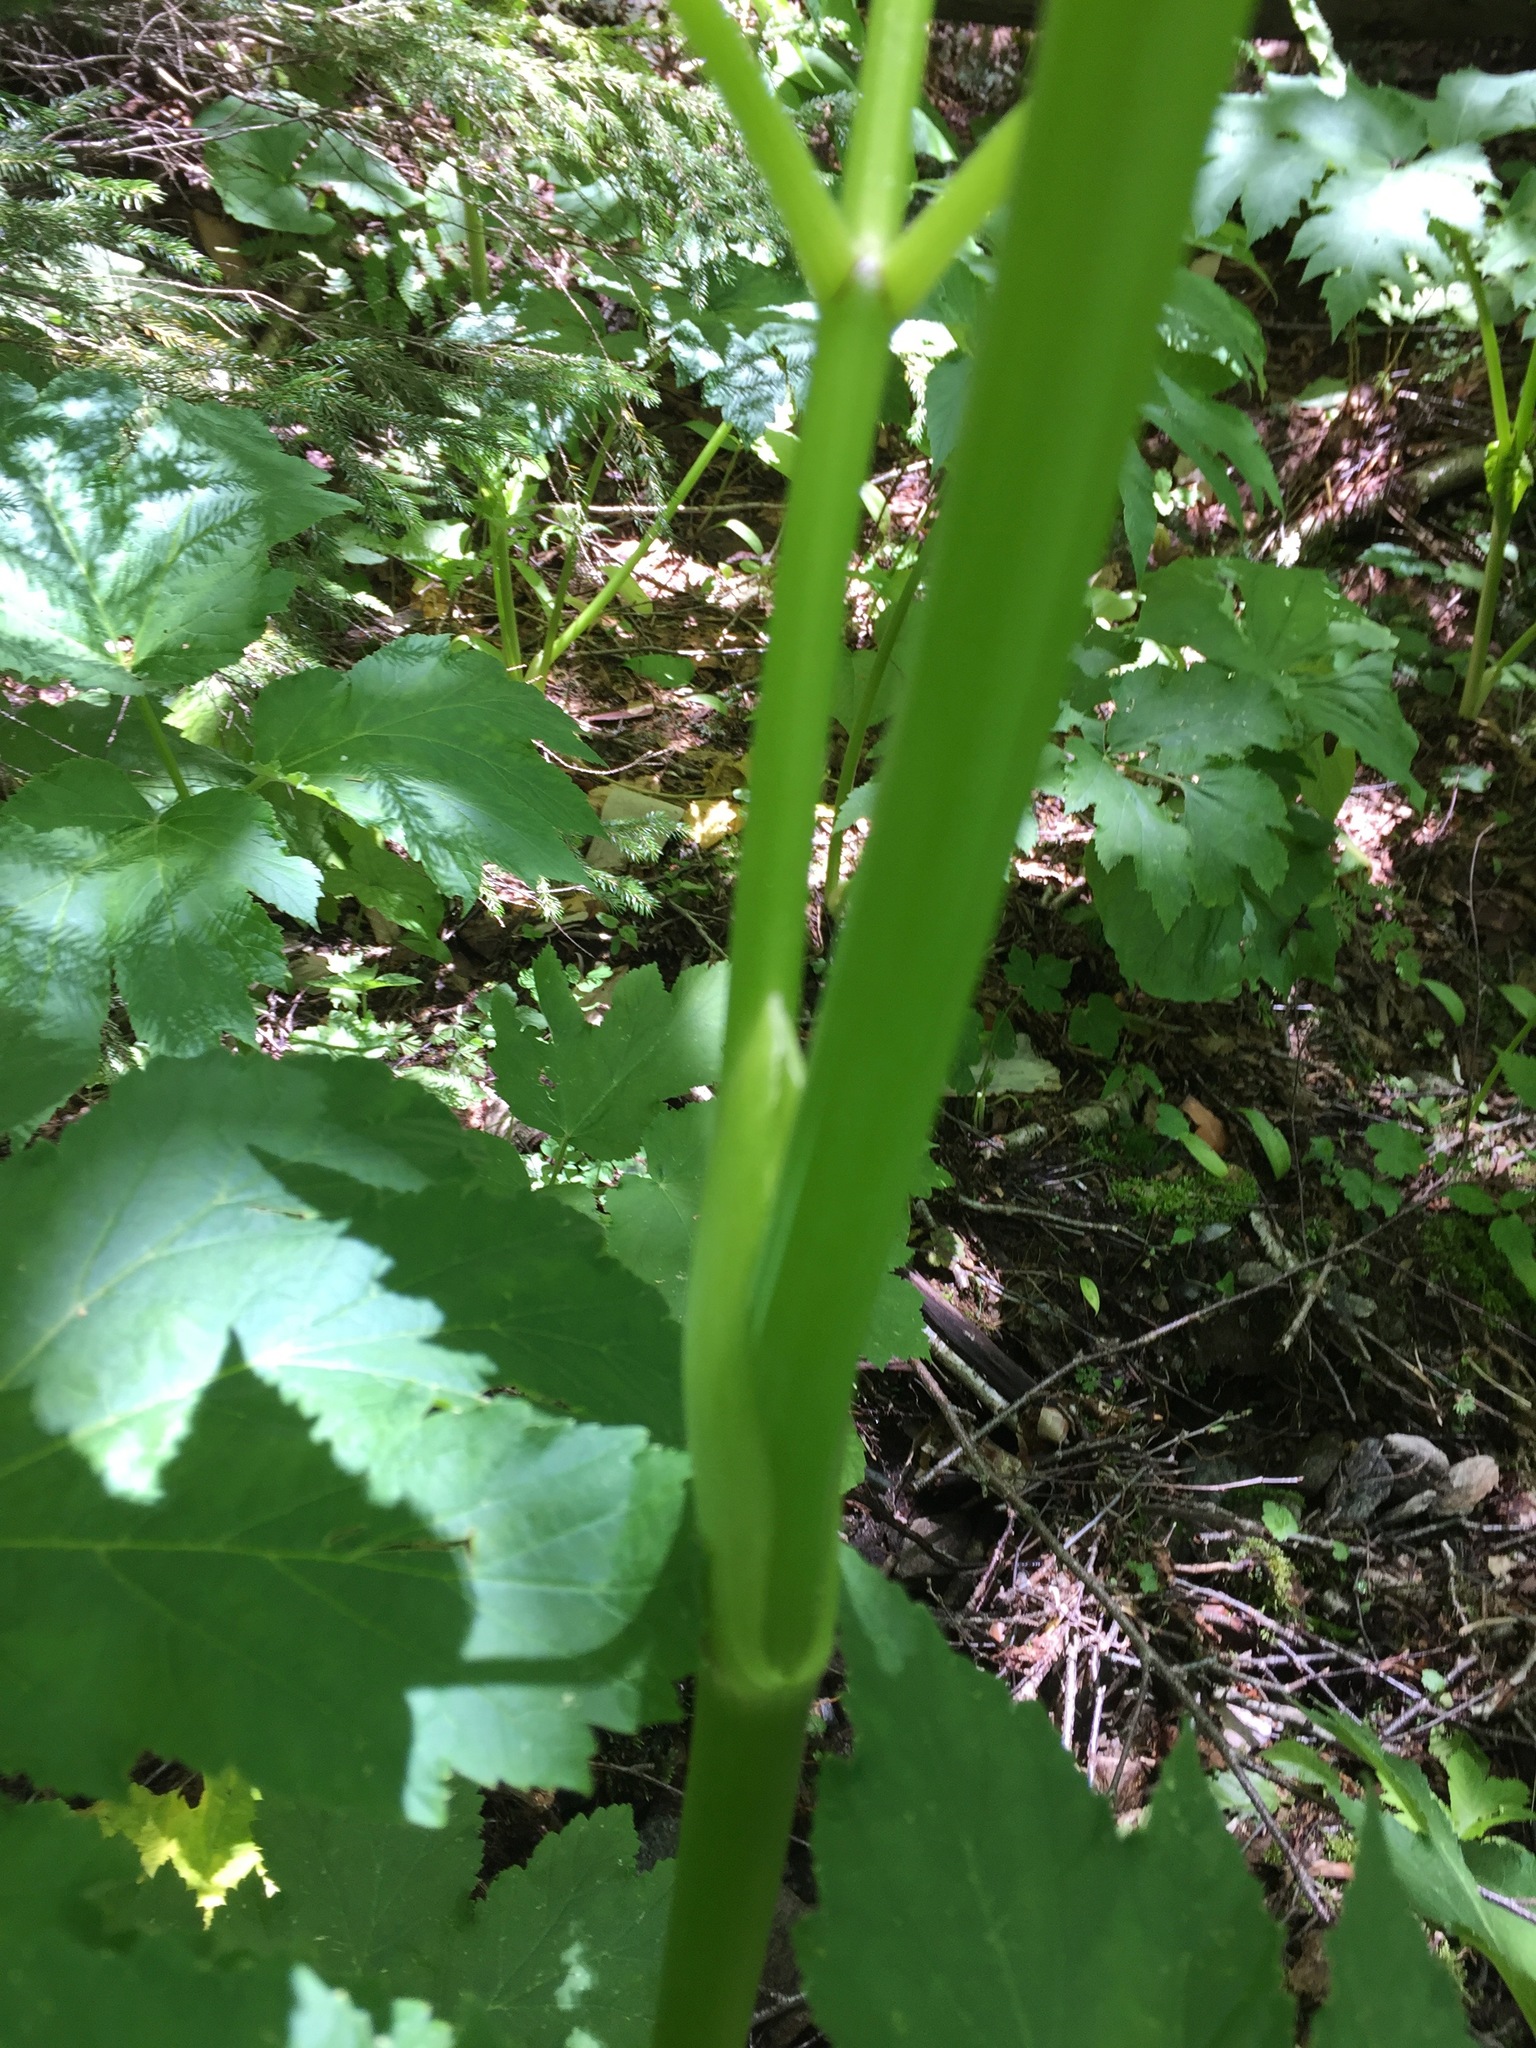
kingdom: Plantae
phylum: Tracheophyta
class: Magnoliopsida
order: Apiales
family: Apiaceae
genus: Heracleum
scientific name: Heracleum maximum
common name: American cow parsnip
